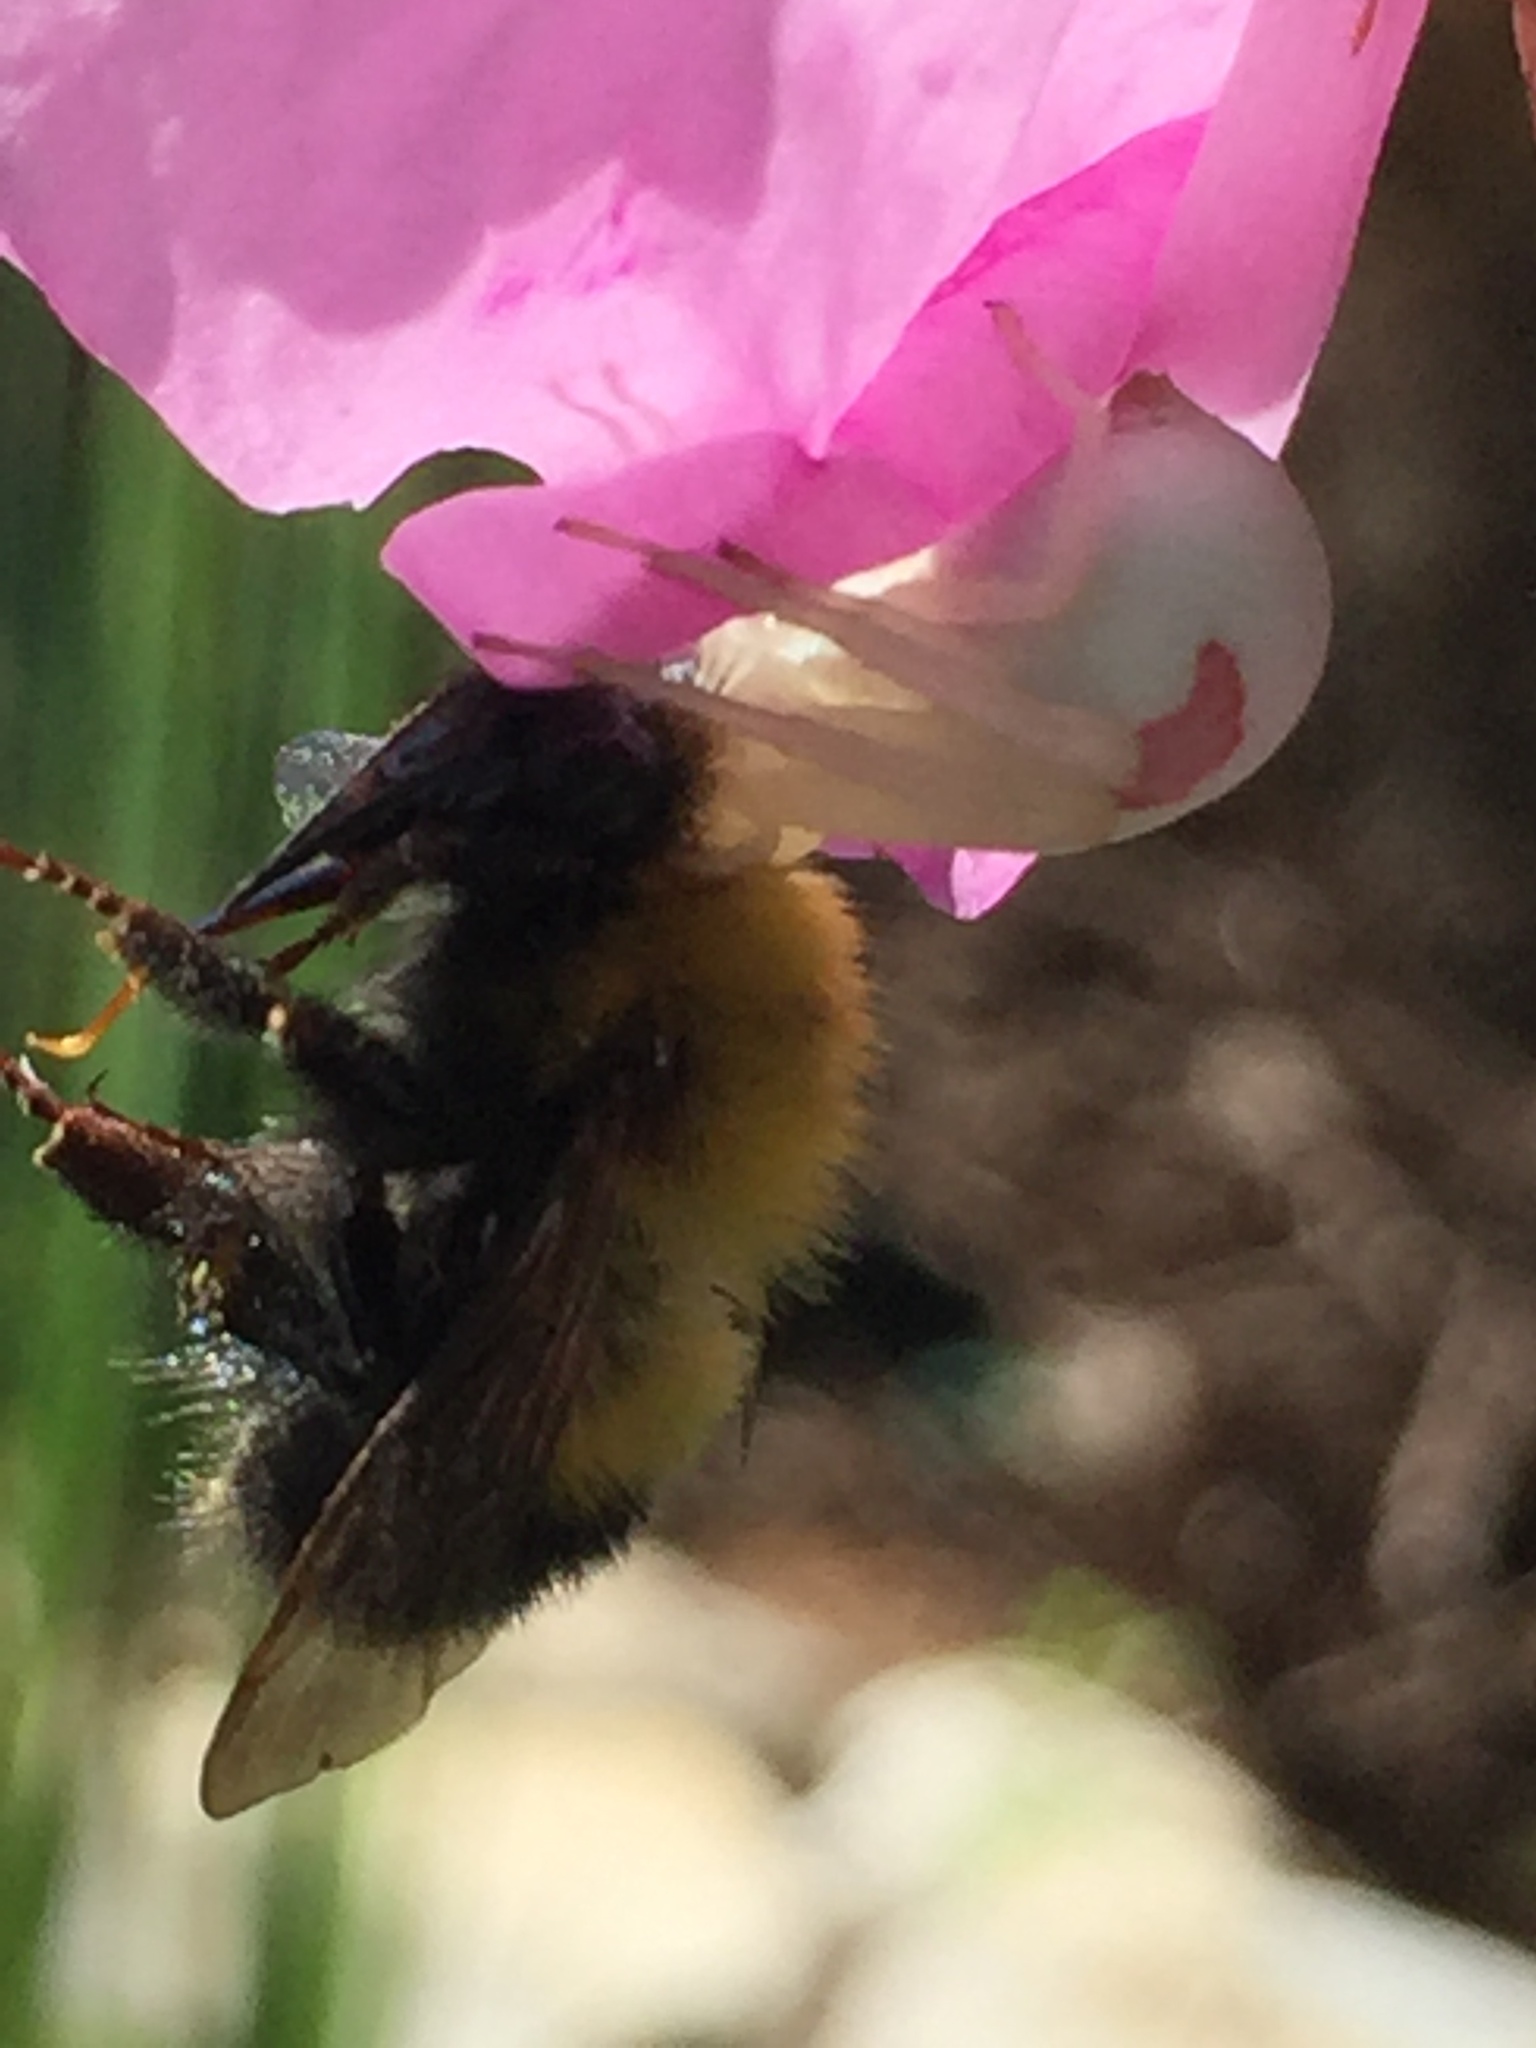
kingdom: Animalia
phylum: Arthropoda
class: Arachnida
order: Araneae
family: Thomisidae
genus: Misumena
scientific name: Misumena vatia
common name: Goldenrod crab spider
